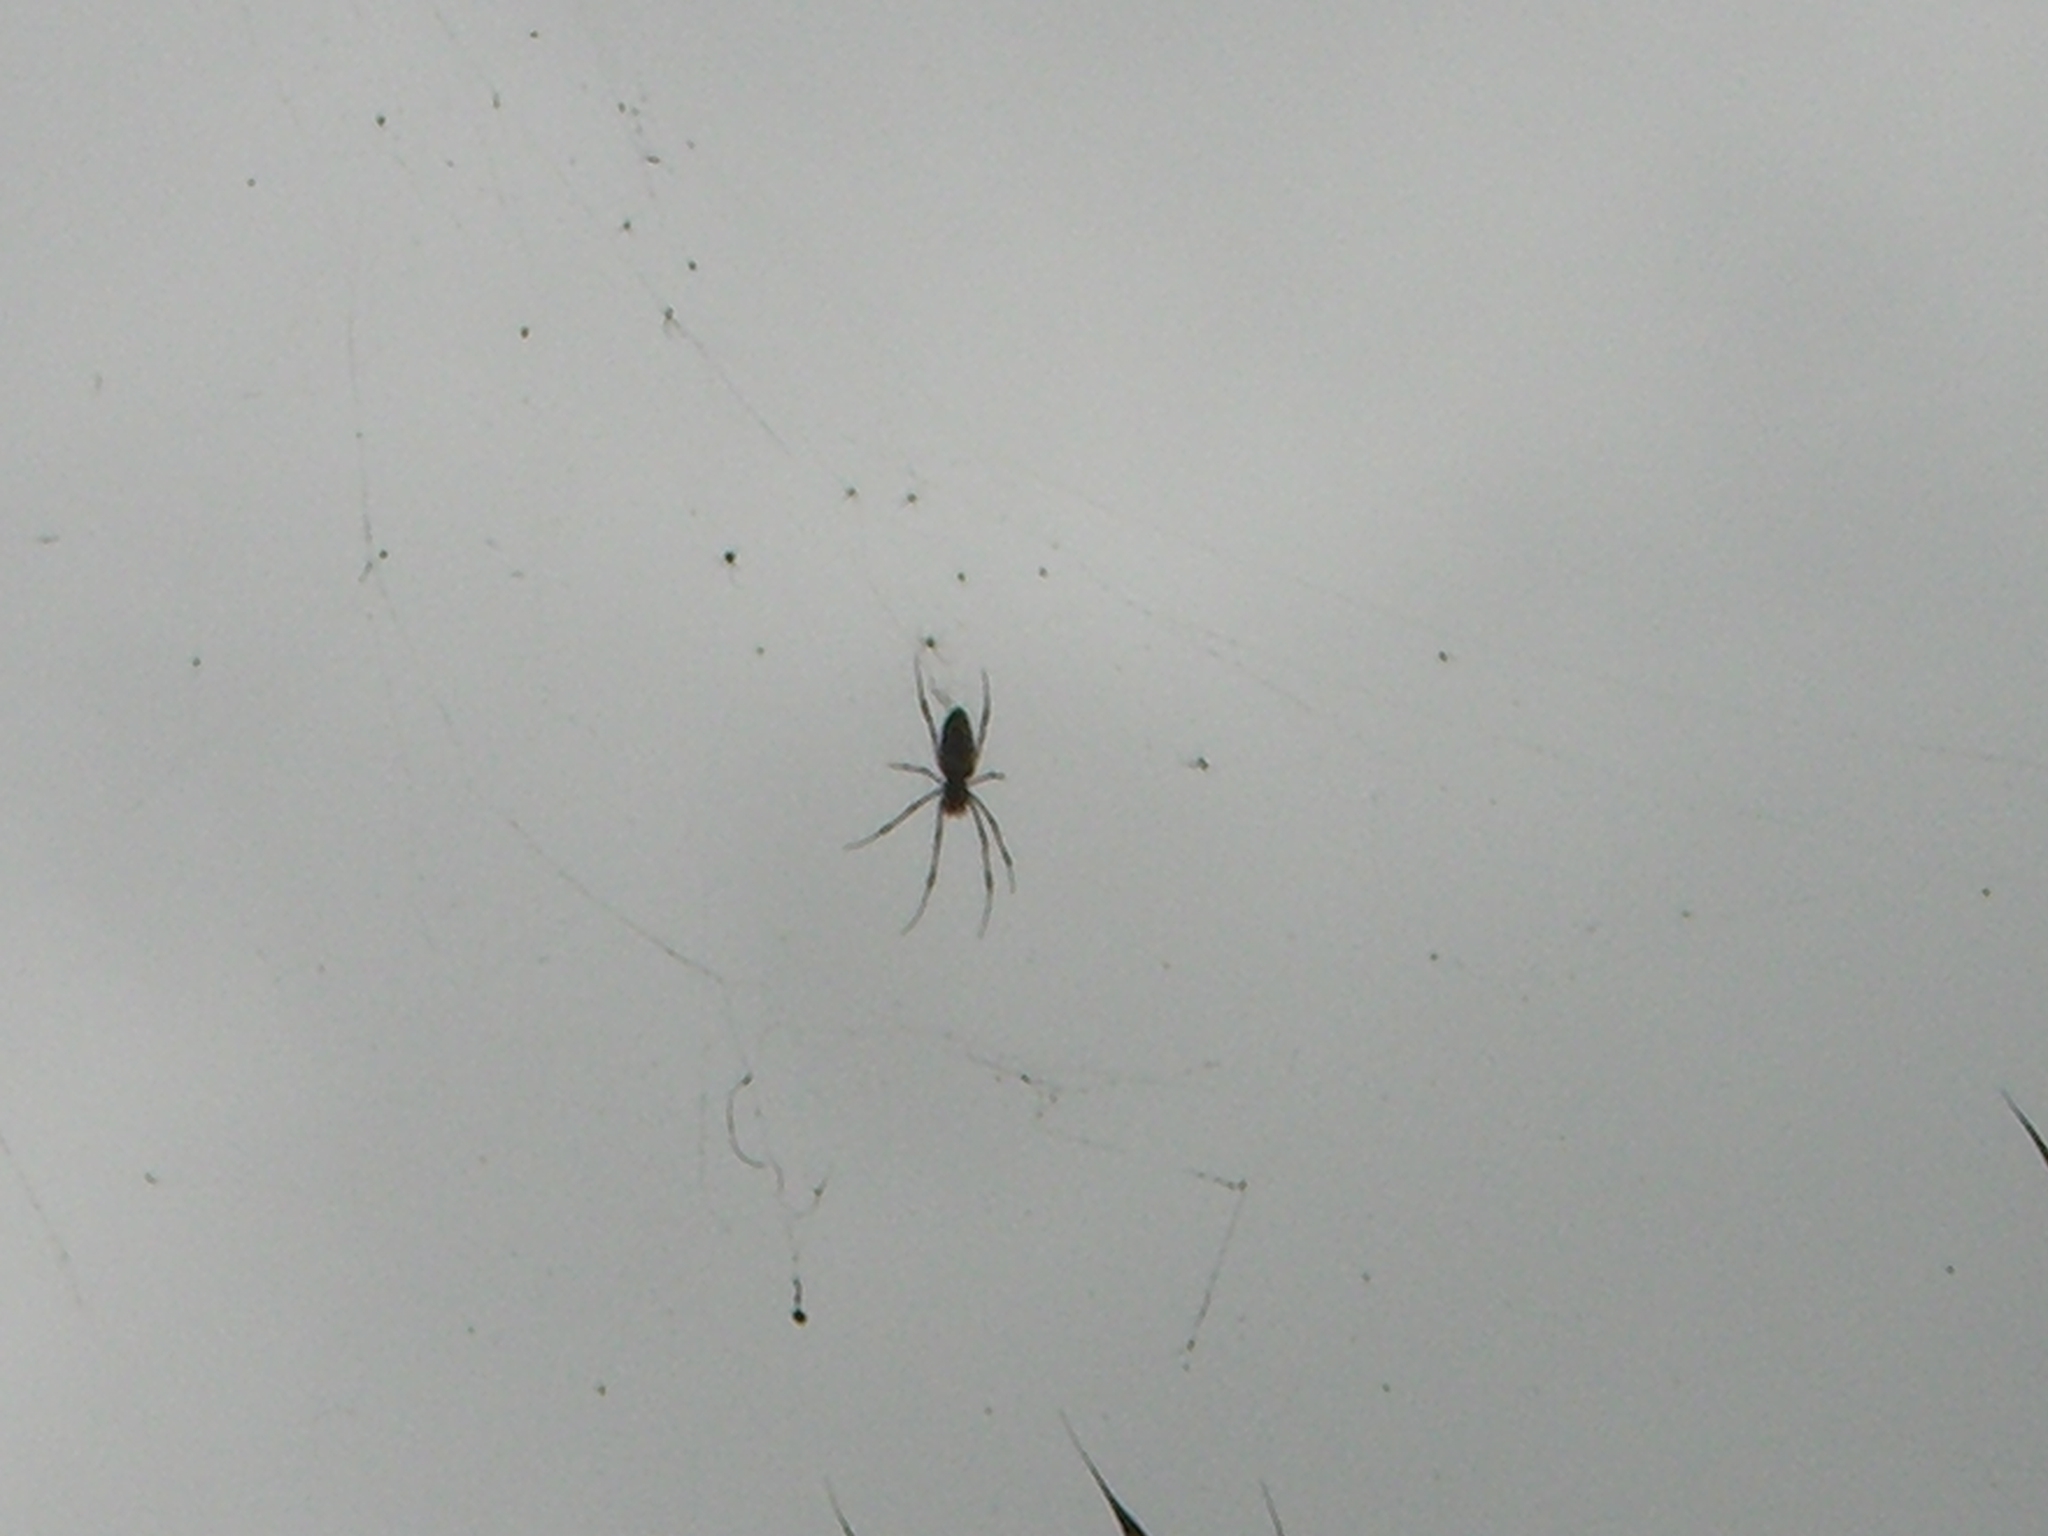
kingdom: Animalia
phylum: Arthropoda
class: Arachnida
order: Araneae
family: Araneidae
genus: Trichonephila
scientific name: Trichonephila inaurata
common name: Red-legged golden orb weaver
